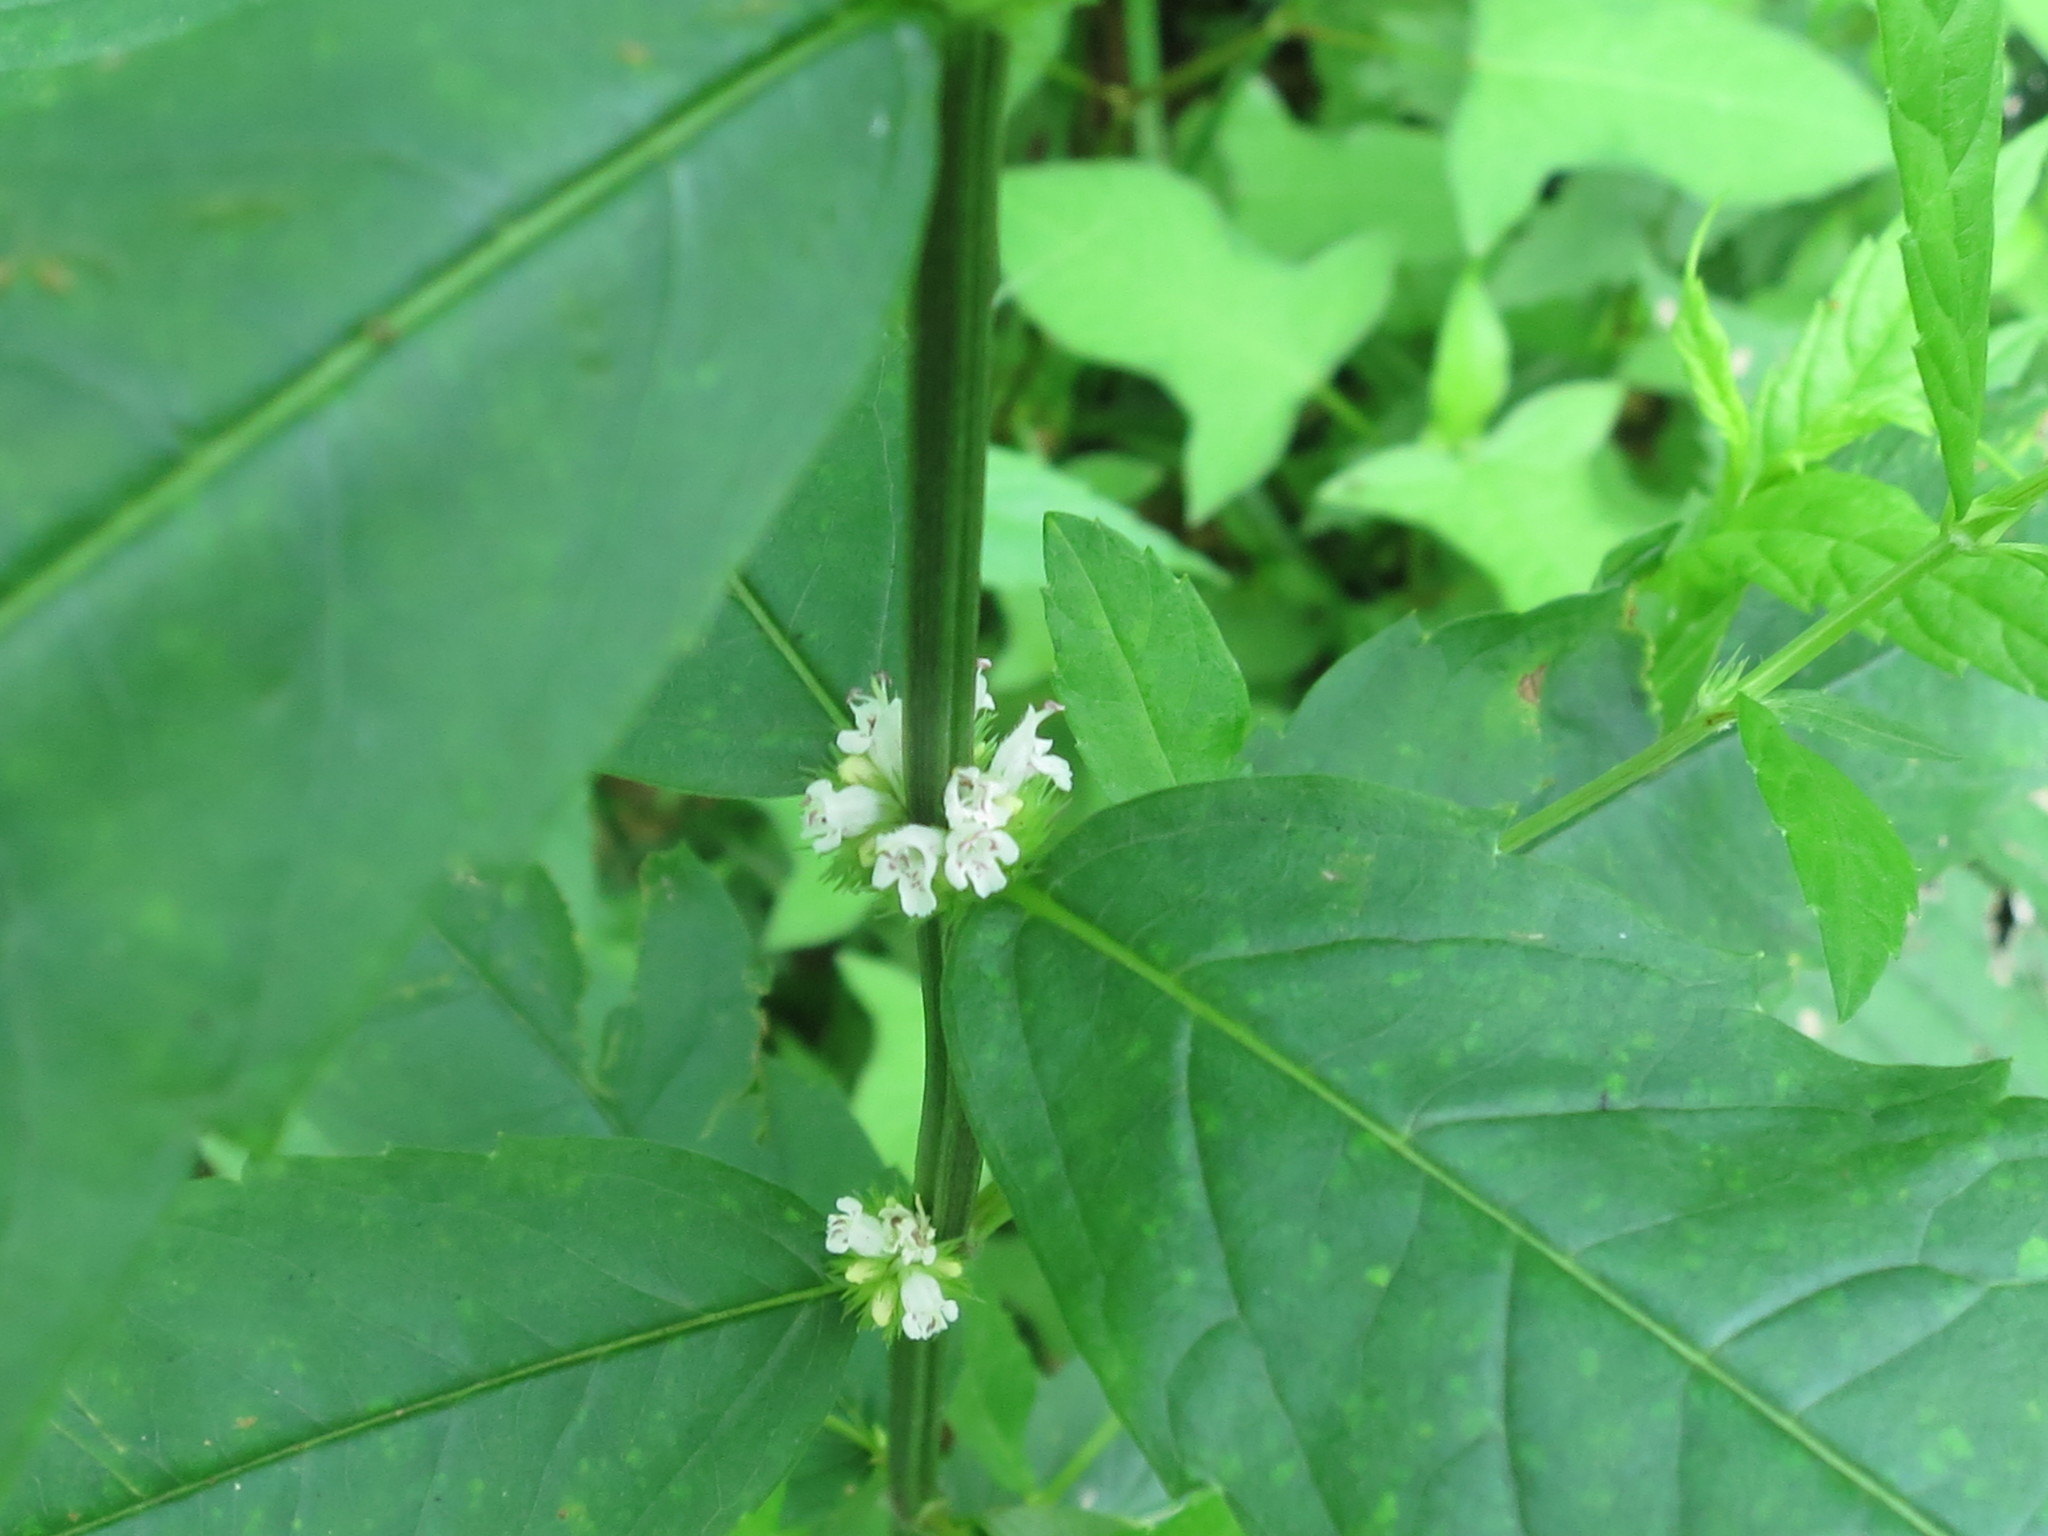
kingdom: Plantae
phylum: Tracheophyta
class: Magnoliopsida
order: Lamiales
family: Lamiaceae
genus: Lycopus
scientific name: Lycopus charkeviczii
